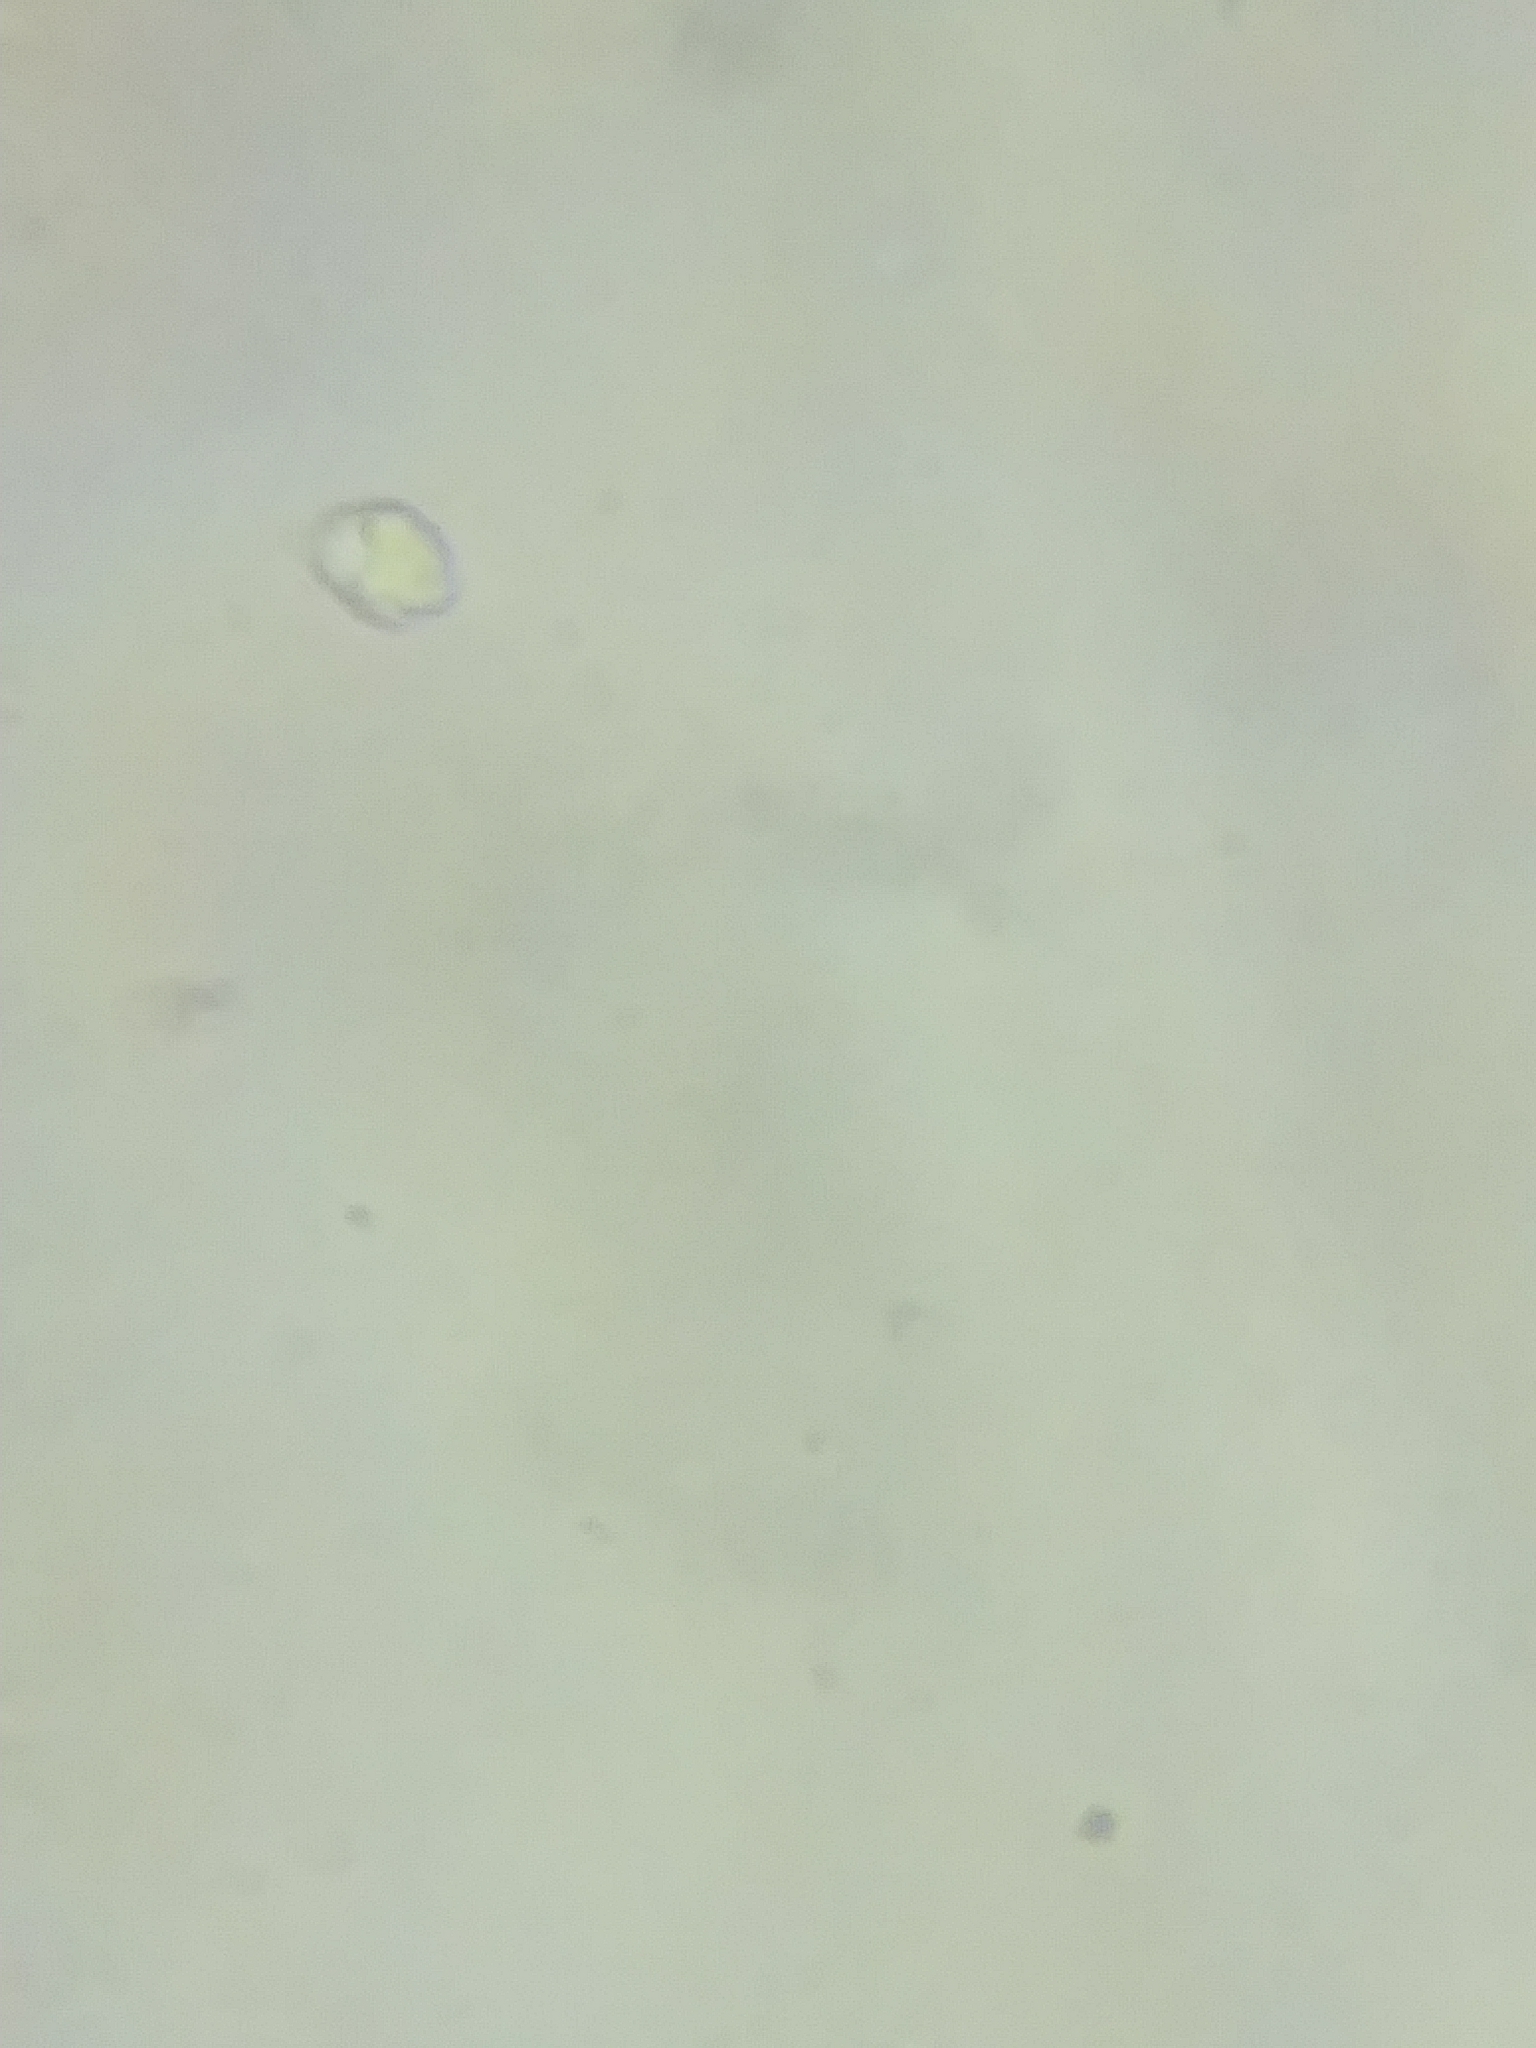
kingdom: Fungi
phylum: Basidiomycota
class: Agaricomycetes
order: Agaricales
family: Tricholomataceae
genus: Melanoleuca
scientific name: Melanoleuca davisiae
